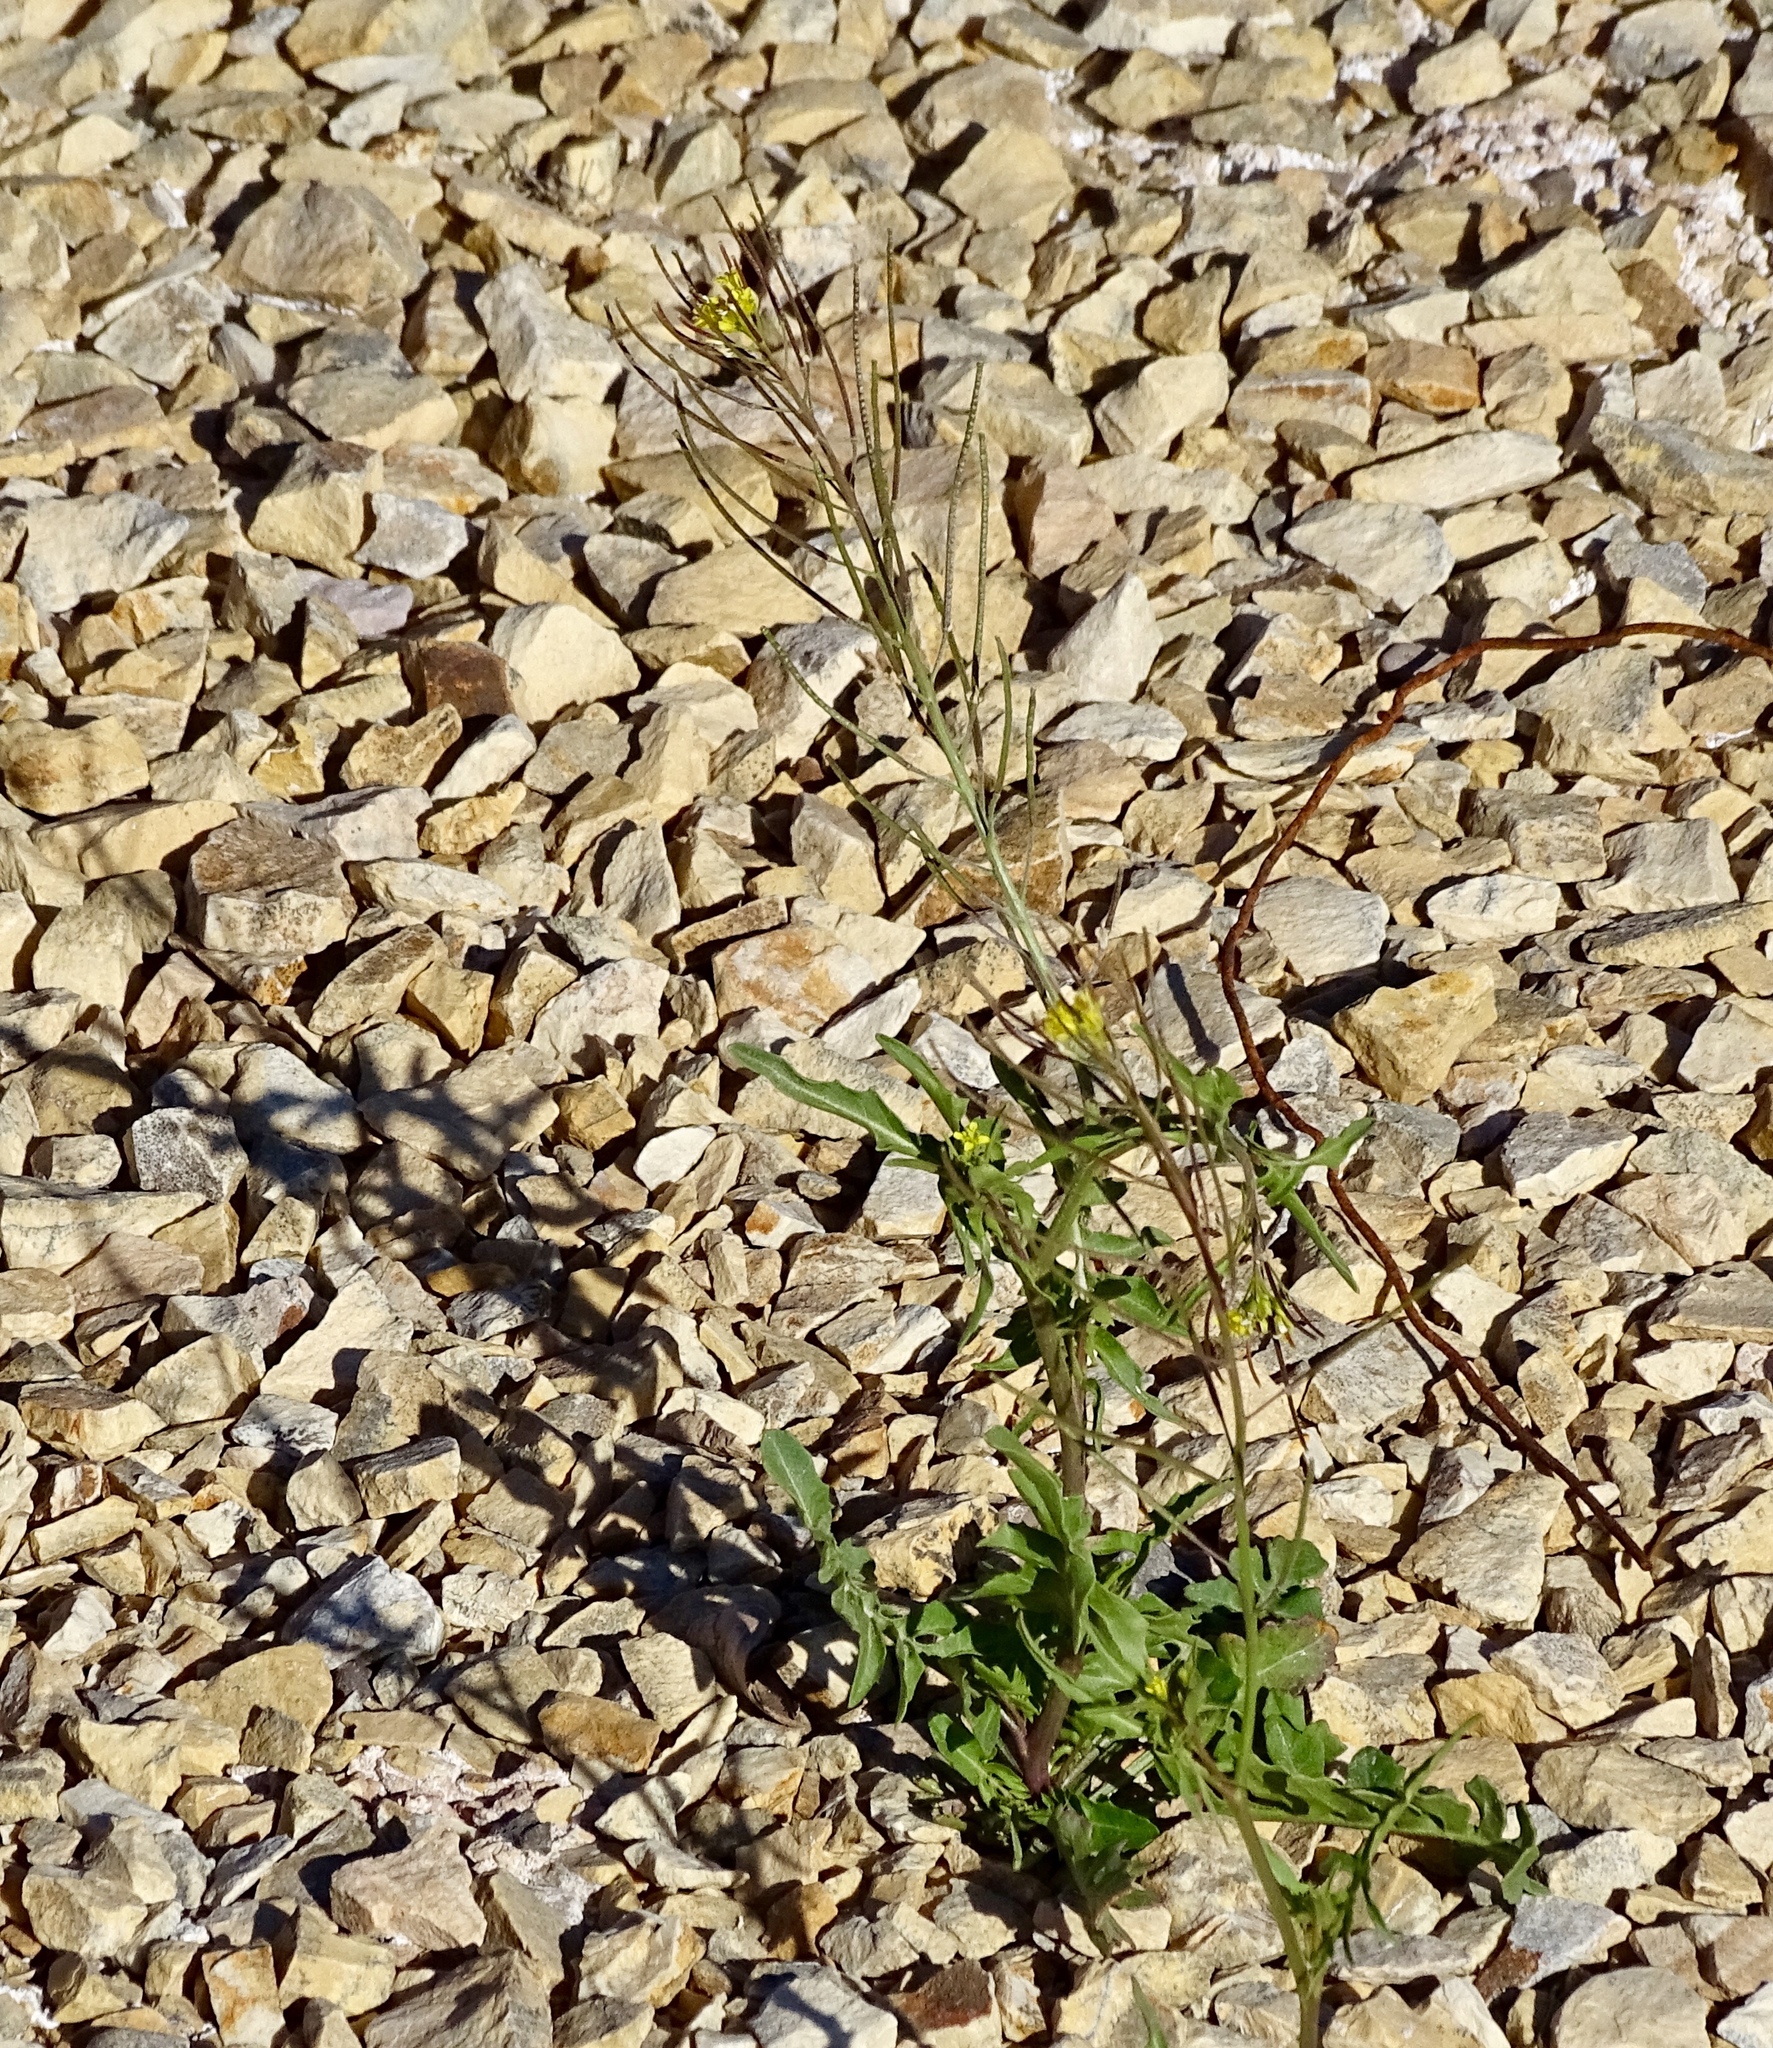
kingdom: Plantae
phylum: Tracheophyta
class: Magnoliopsida
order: Brassicales
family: Brassicaceae
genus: Sisymbrium
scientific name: Sisymbrium irio
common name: London rocket
